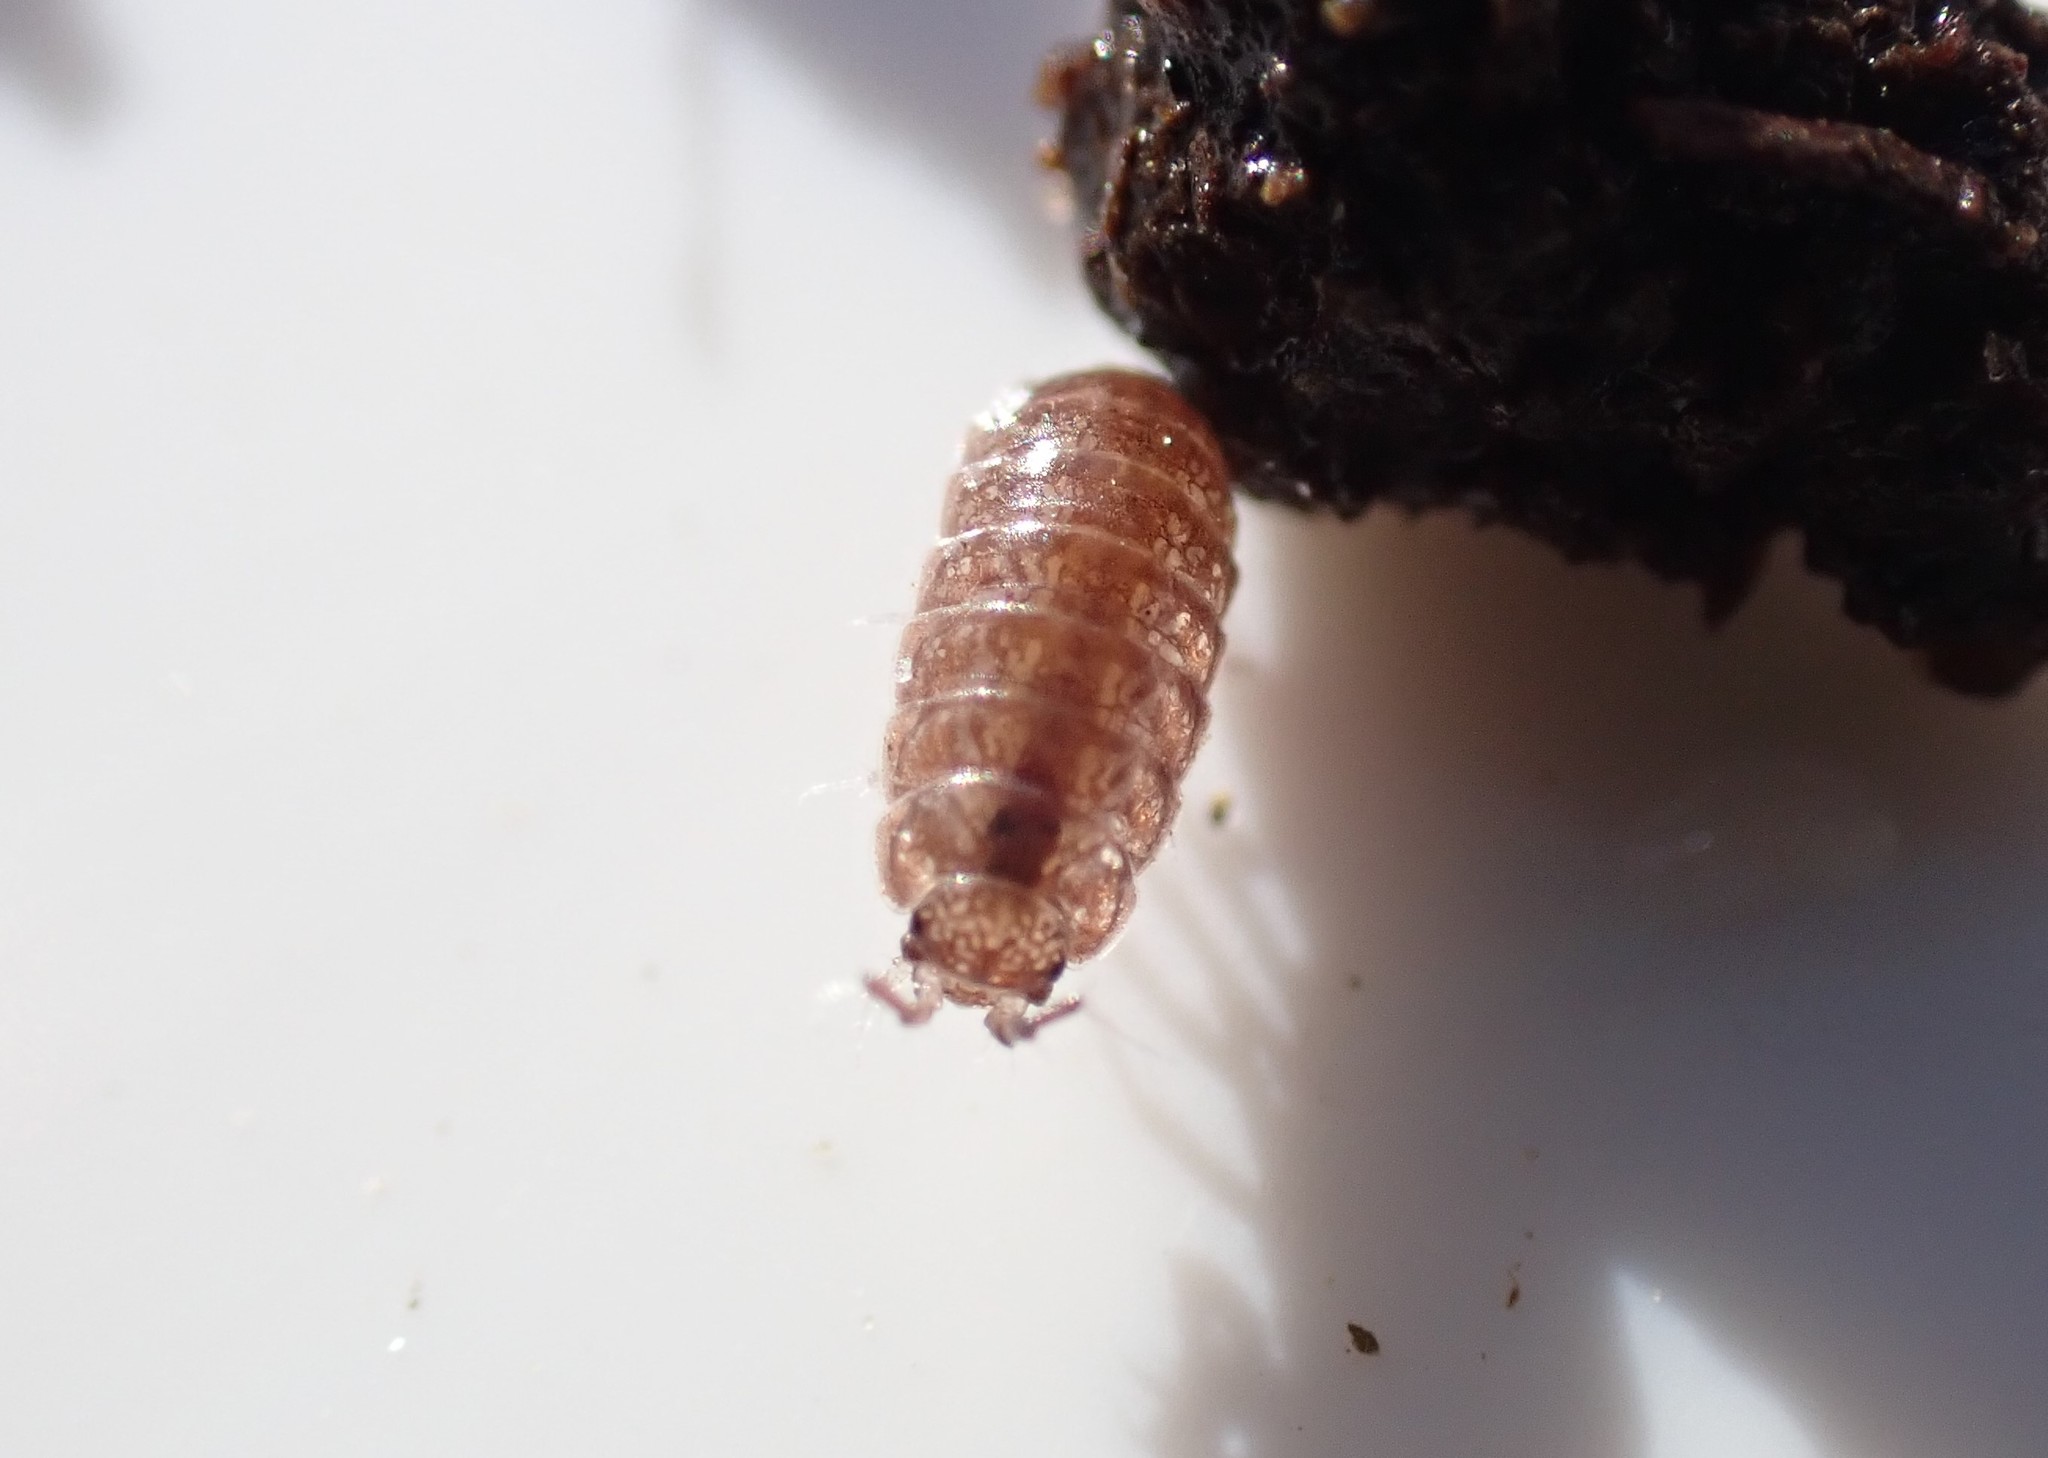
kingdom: Animalia
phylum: Arthropoda
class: Malacostraca
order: Isopoda
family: Trichoniscidae
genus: Trichoniscus
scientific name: Trichoniscus
